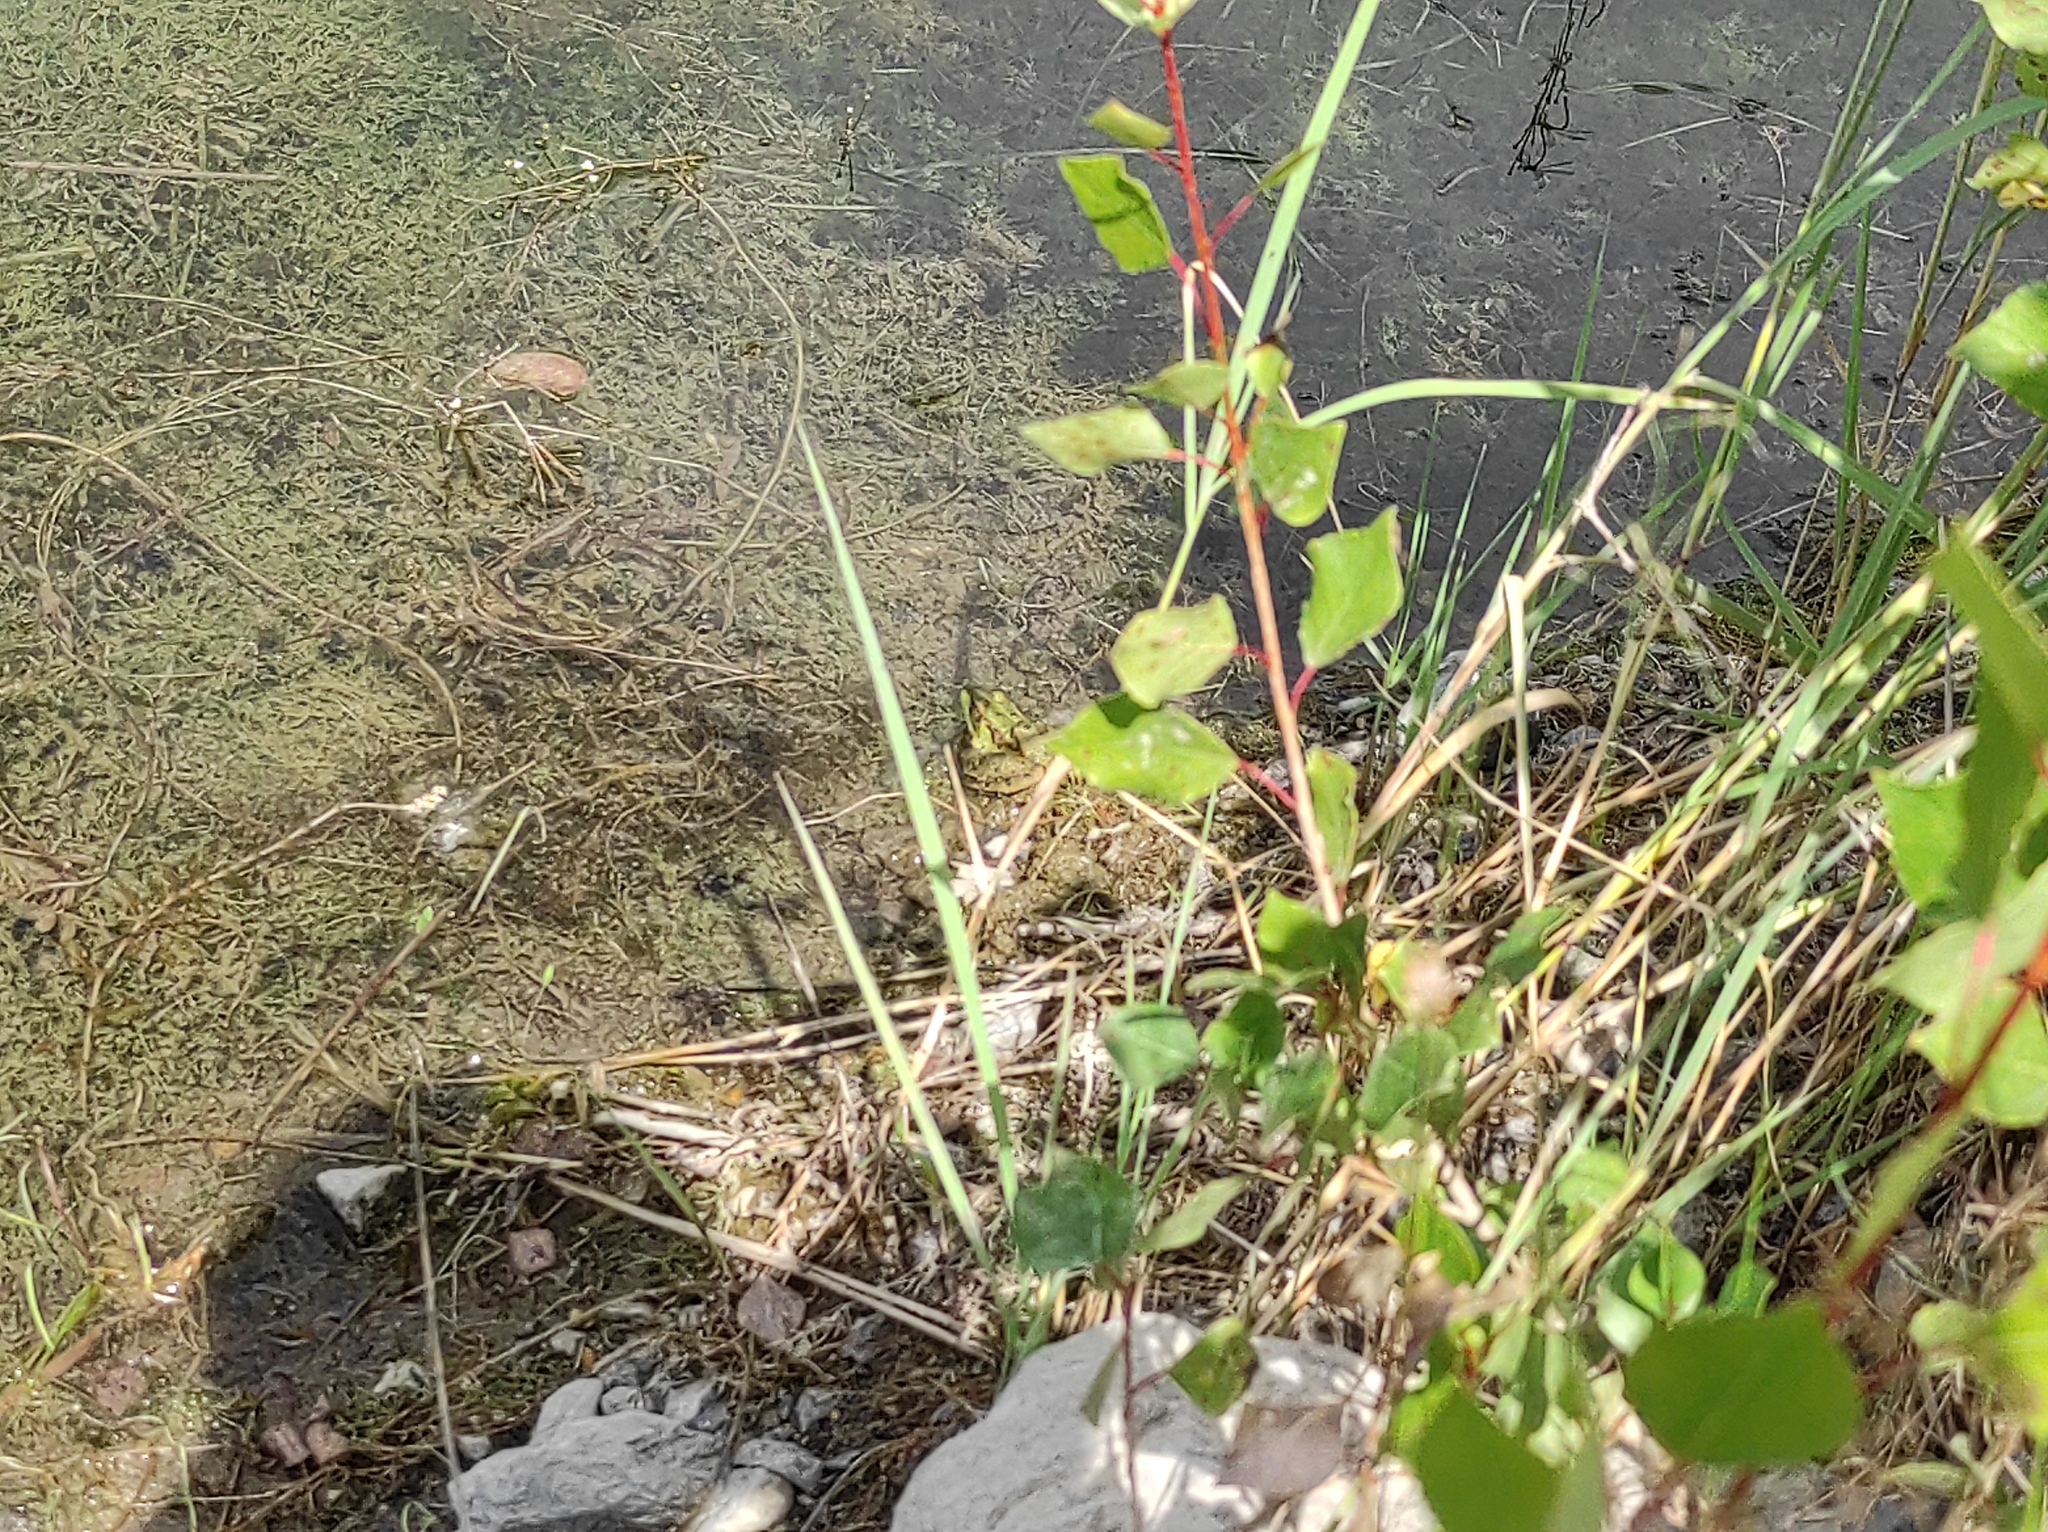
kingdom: Animalia
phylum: Chordata
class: Amphibia
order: Anura
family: Ranidae
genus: Pelophylax
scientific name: Pelophylax ridibundus
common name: Marsh frog
